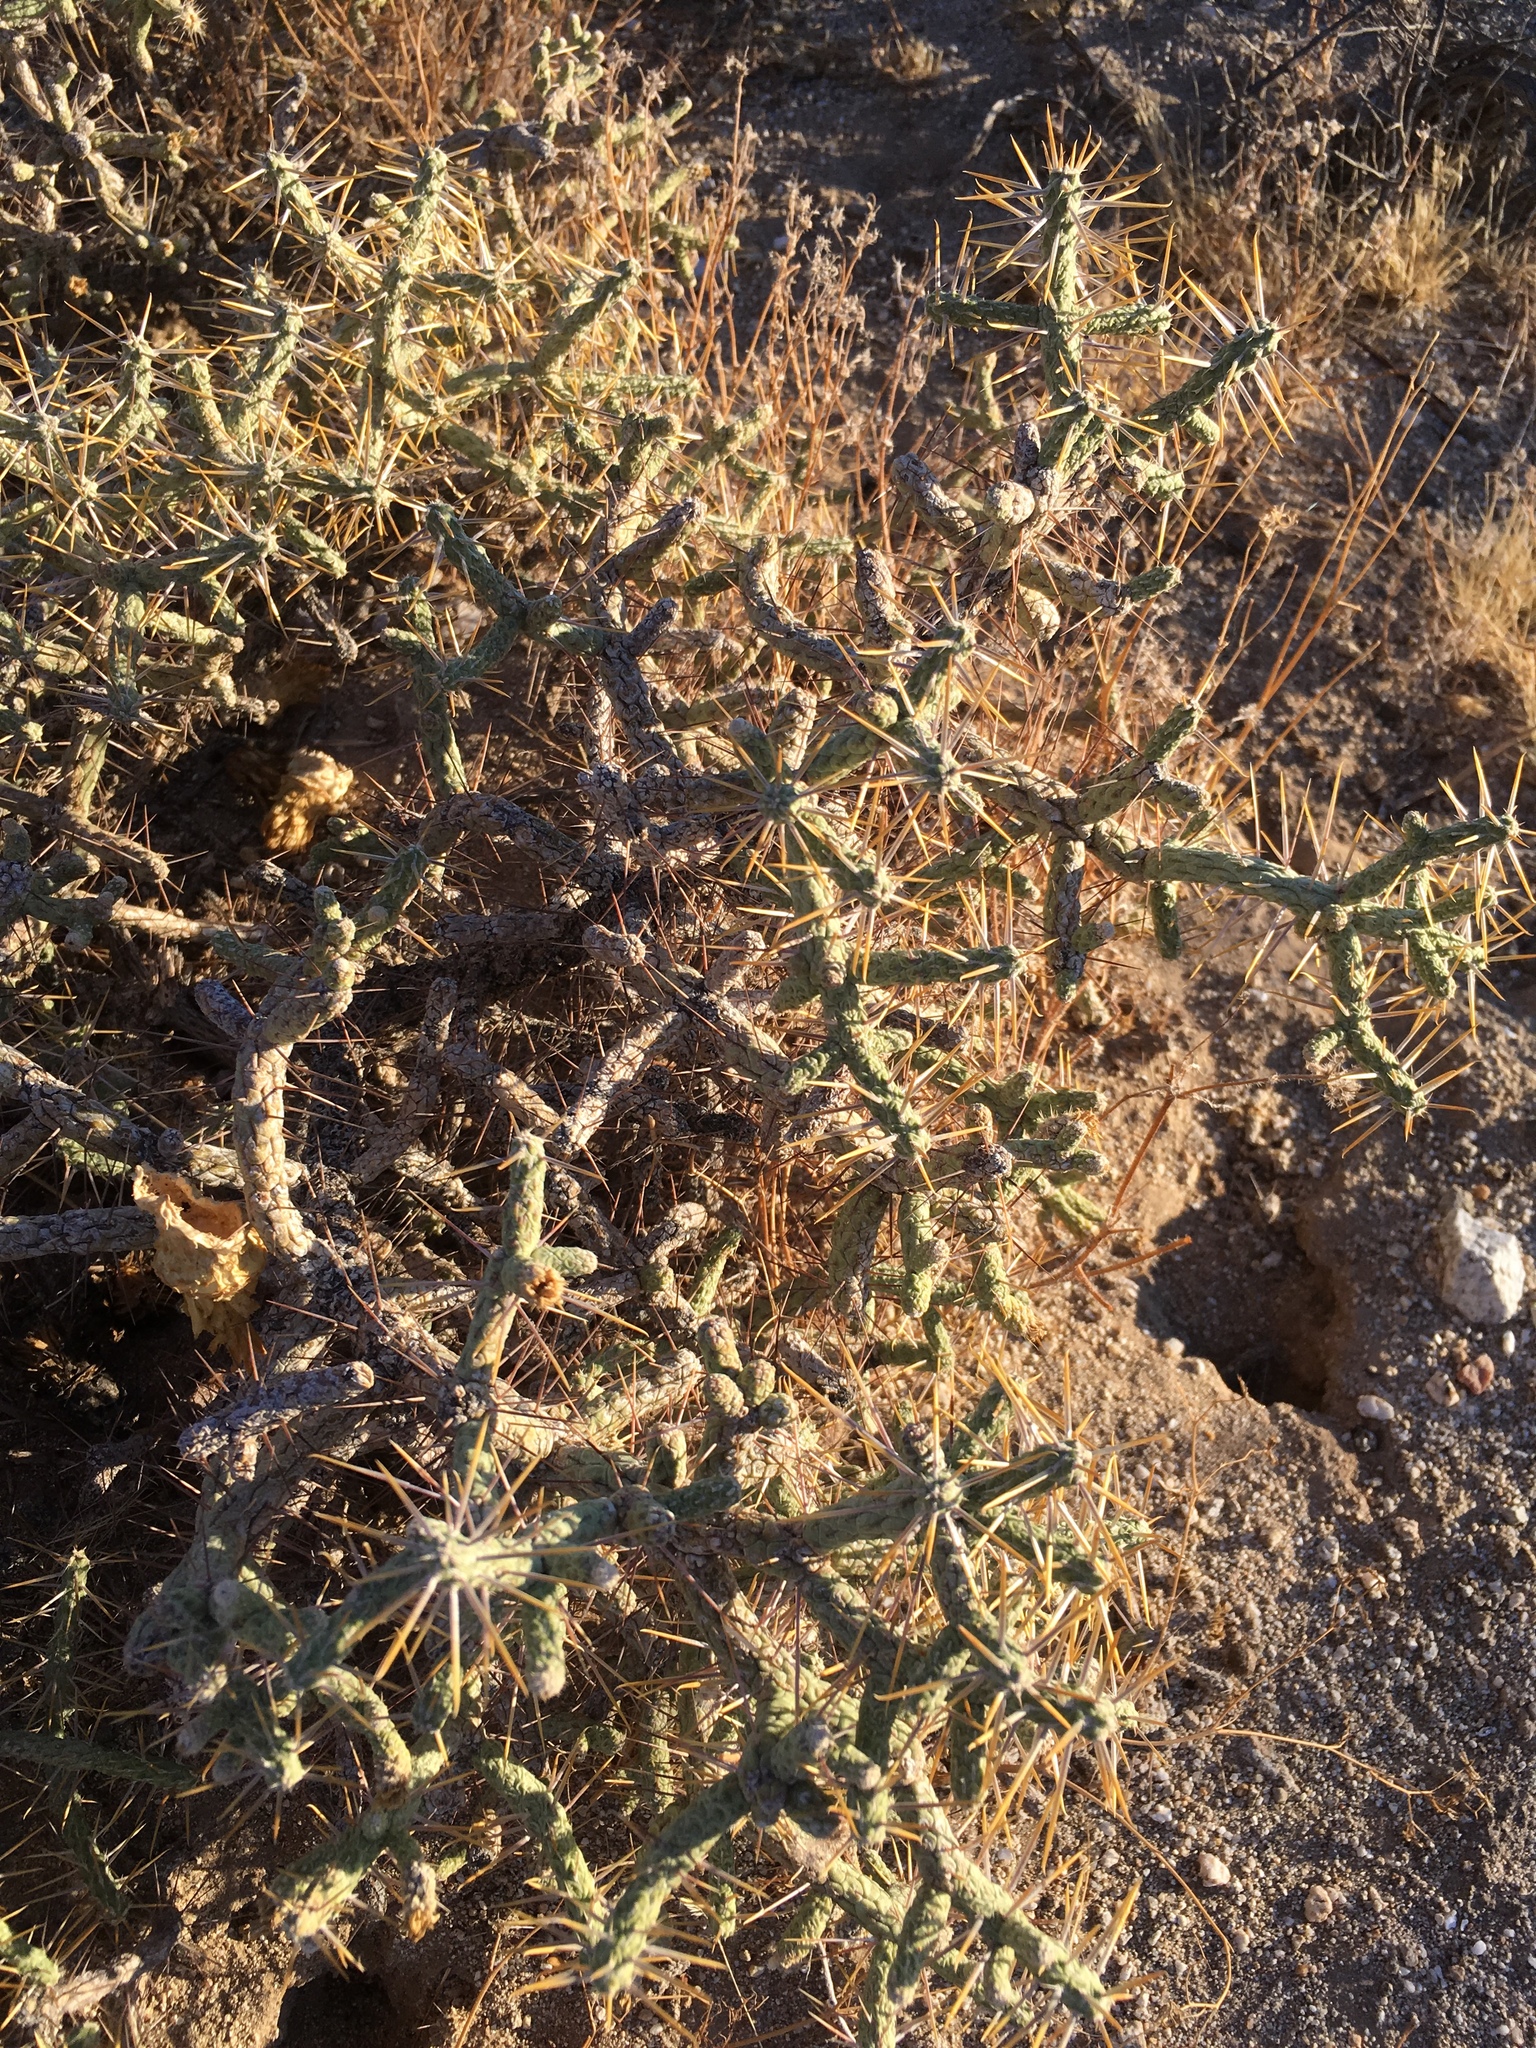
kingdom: Plantae
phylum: Tracheophyta
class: Magnoliopsida
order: Caryophyllales
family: Cactaceae
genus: Cylindropuntia
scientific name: Cylindropuntia ramosissima
